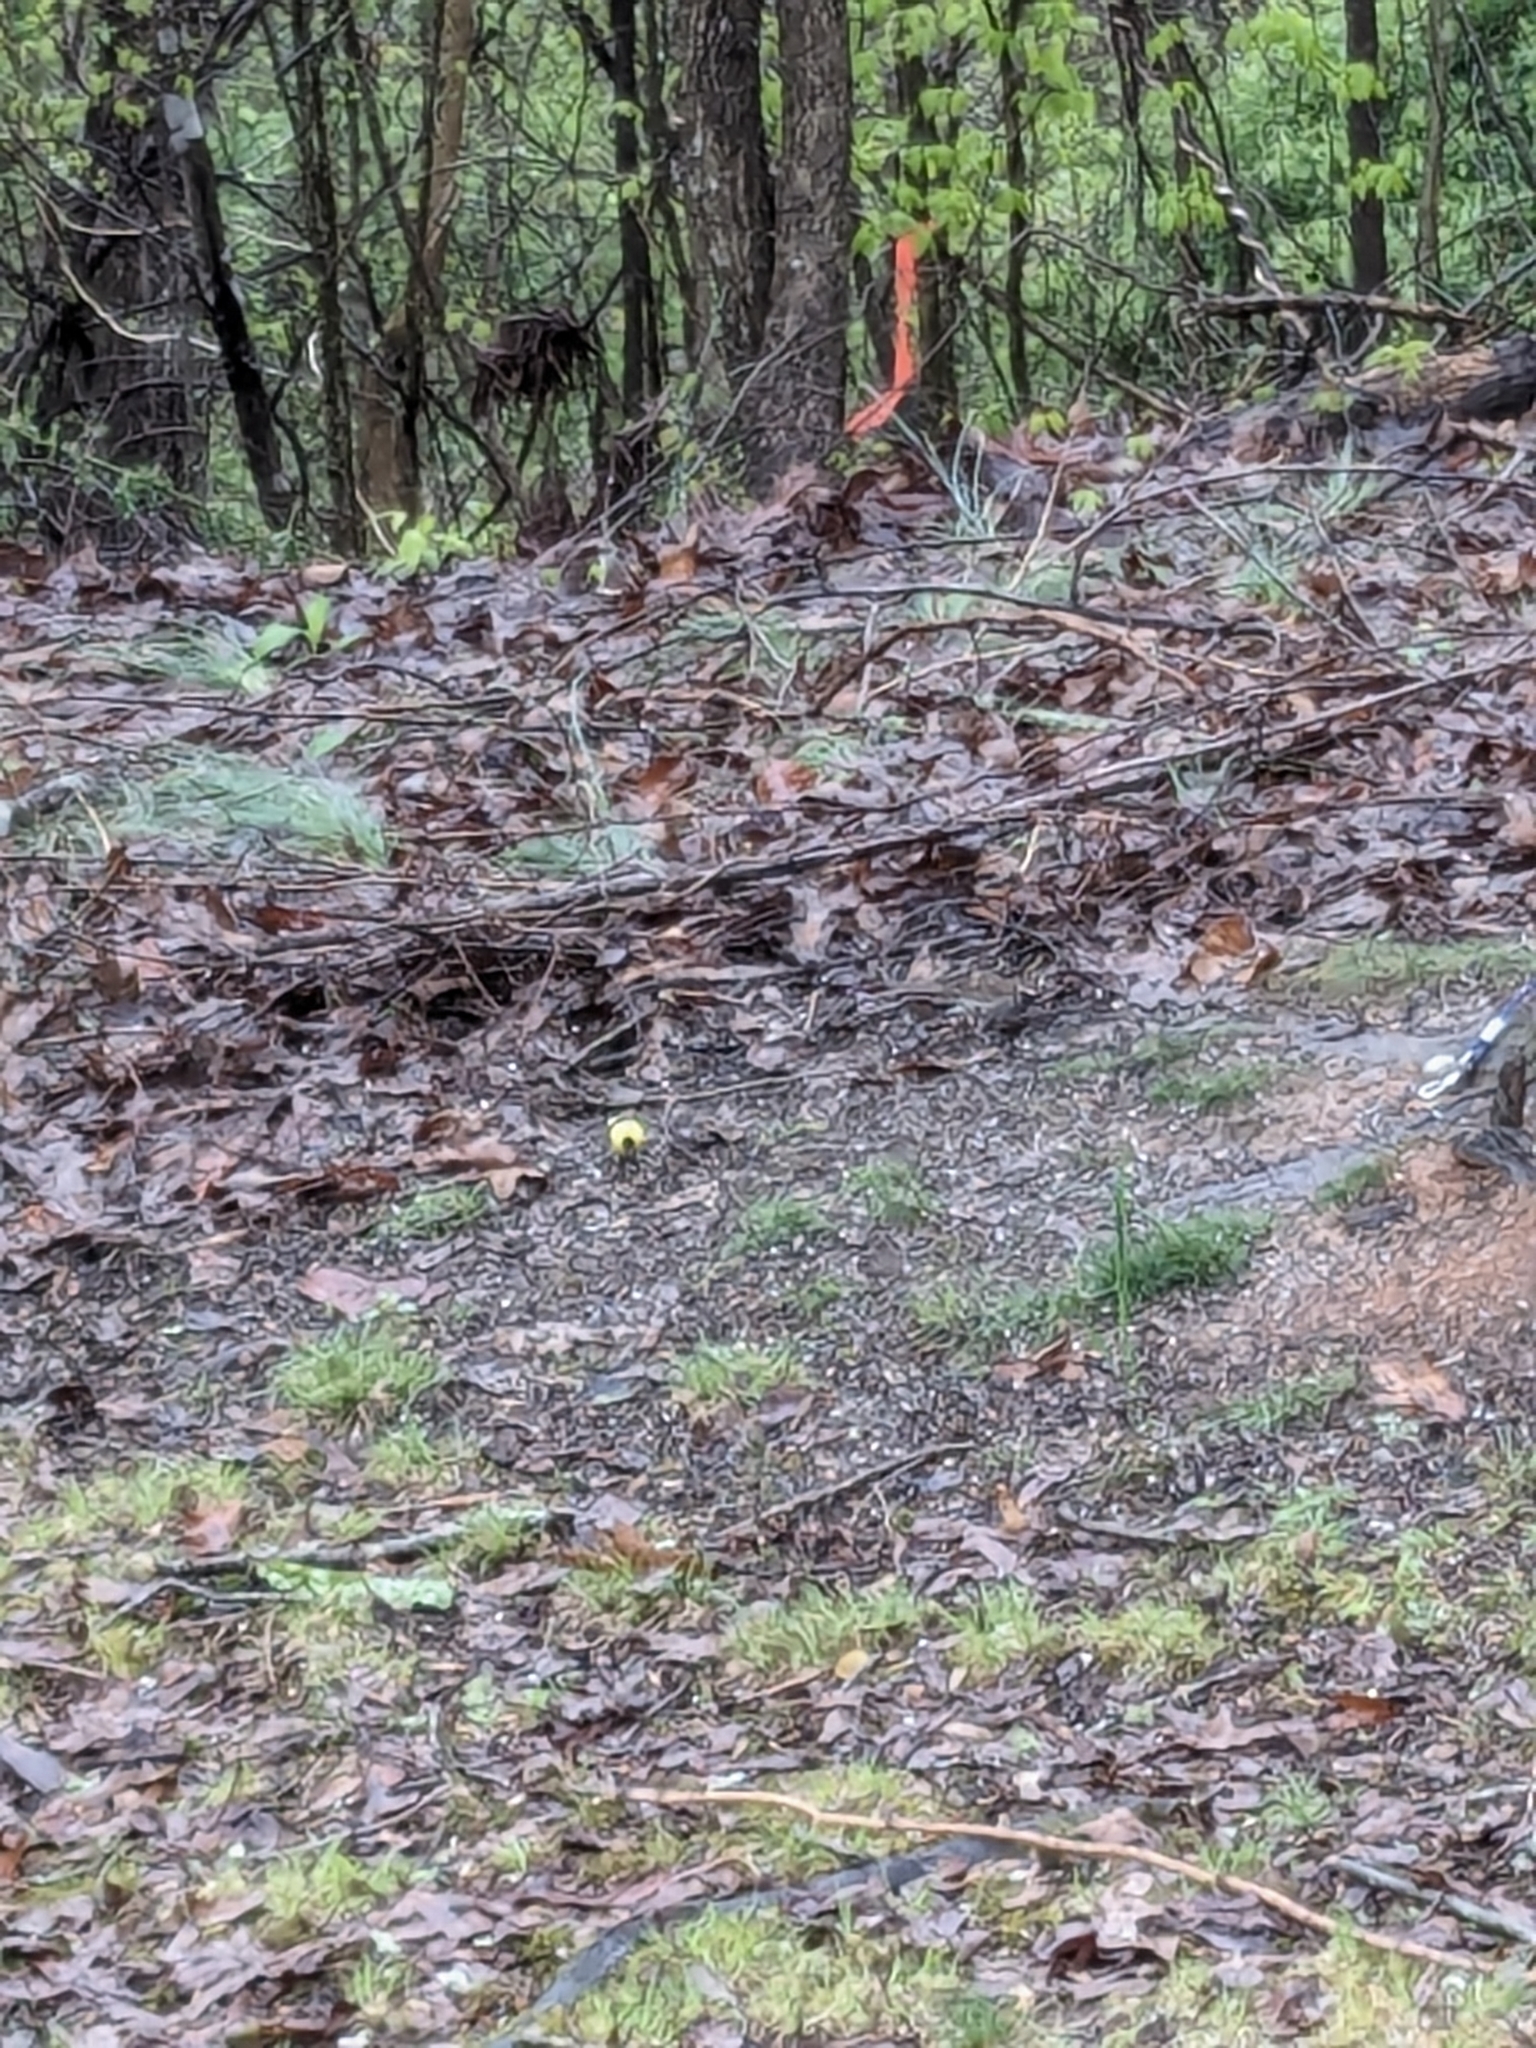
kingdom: Animalia
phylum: Chordata
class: Aves
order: Passeriformes
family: Fringillidae
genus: Spinus
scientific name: Spinus tristis
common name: American goldfinch
